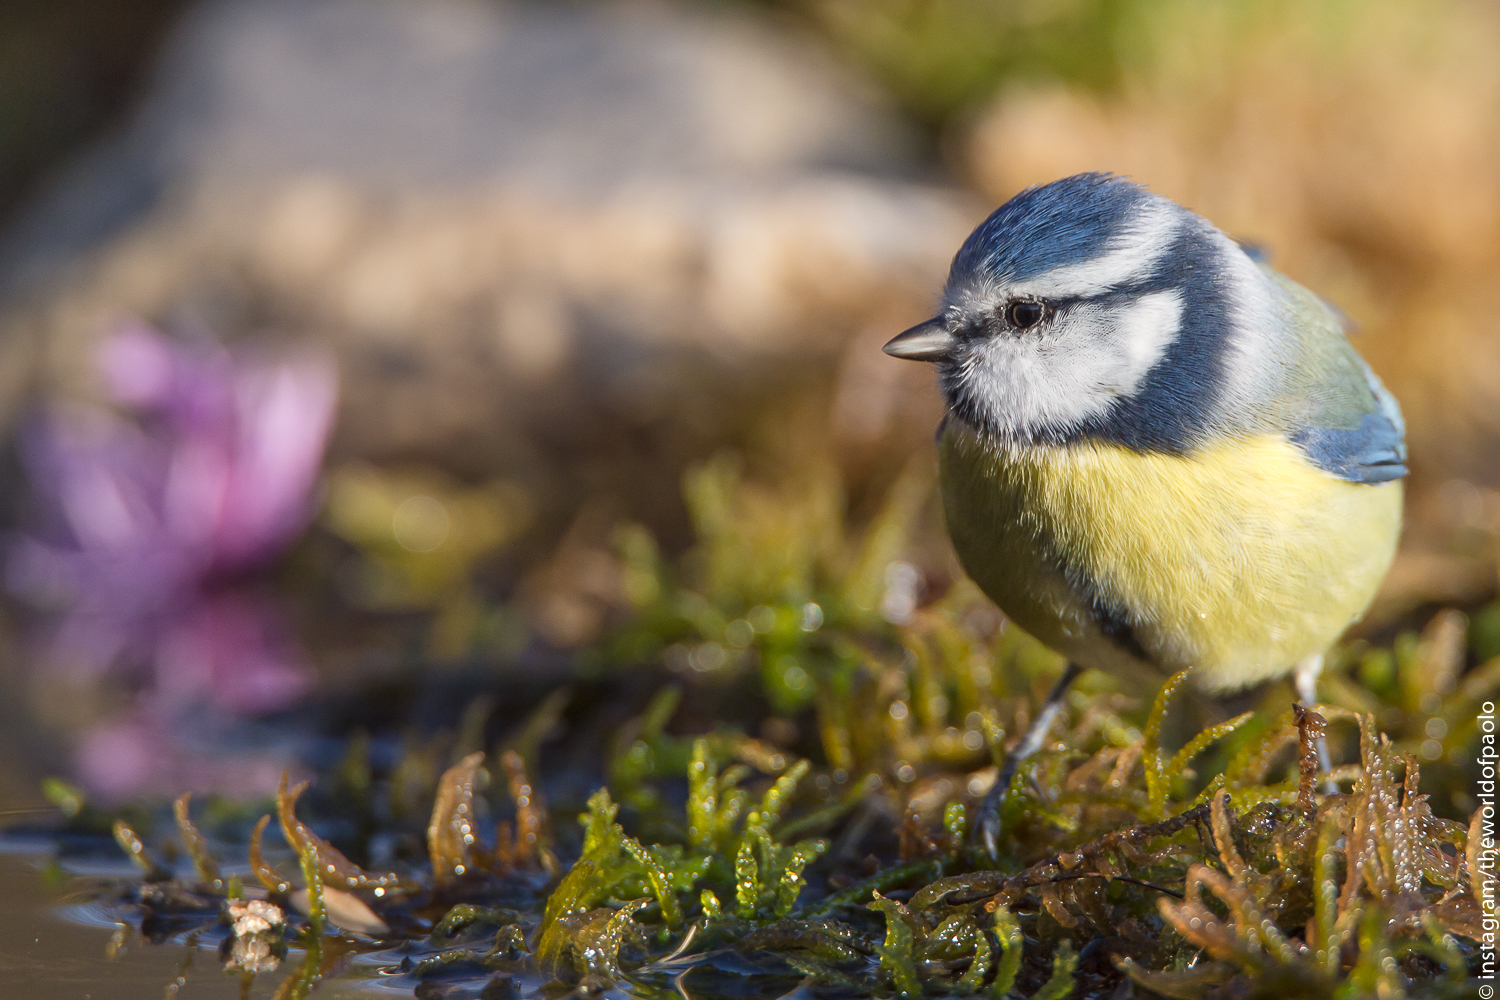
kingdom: Animalia
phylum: Chordata
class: Aves
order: Passeriformes
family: Paridae
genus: Cyanistes
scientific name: Cyanistes caeruleus
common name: Eurasian blue tit
